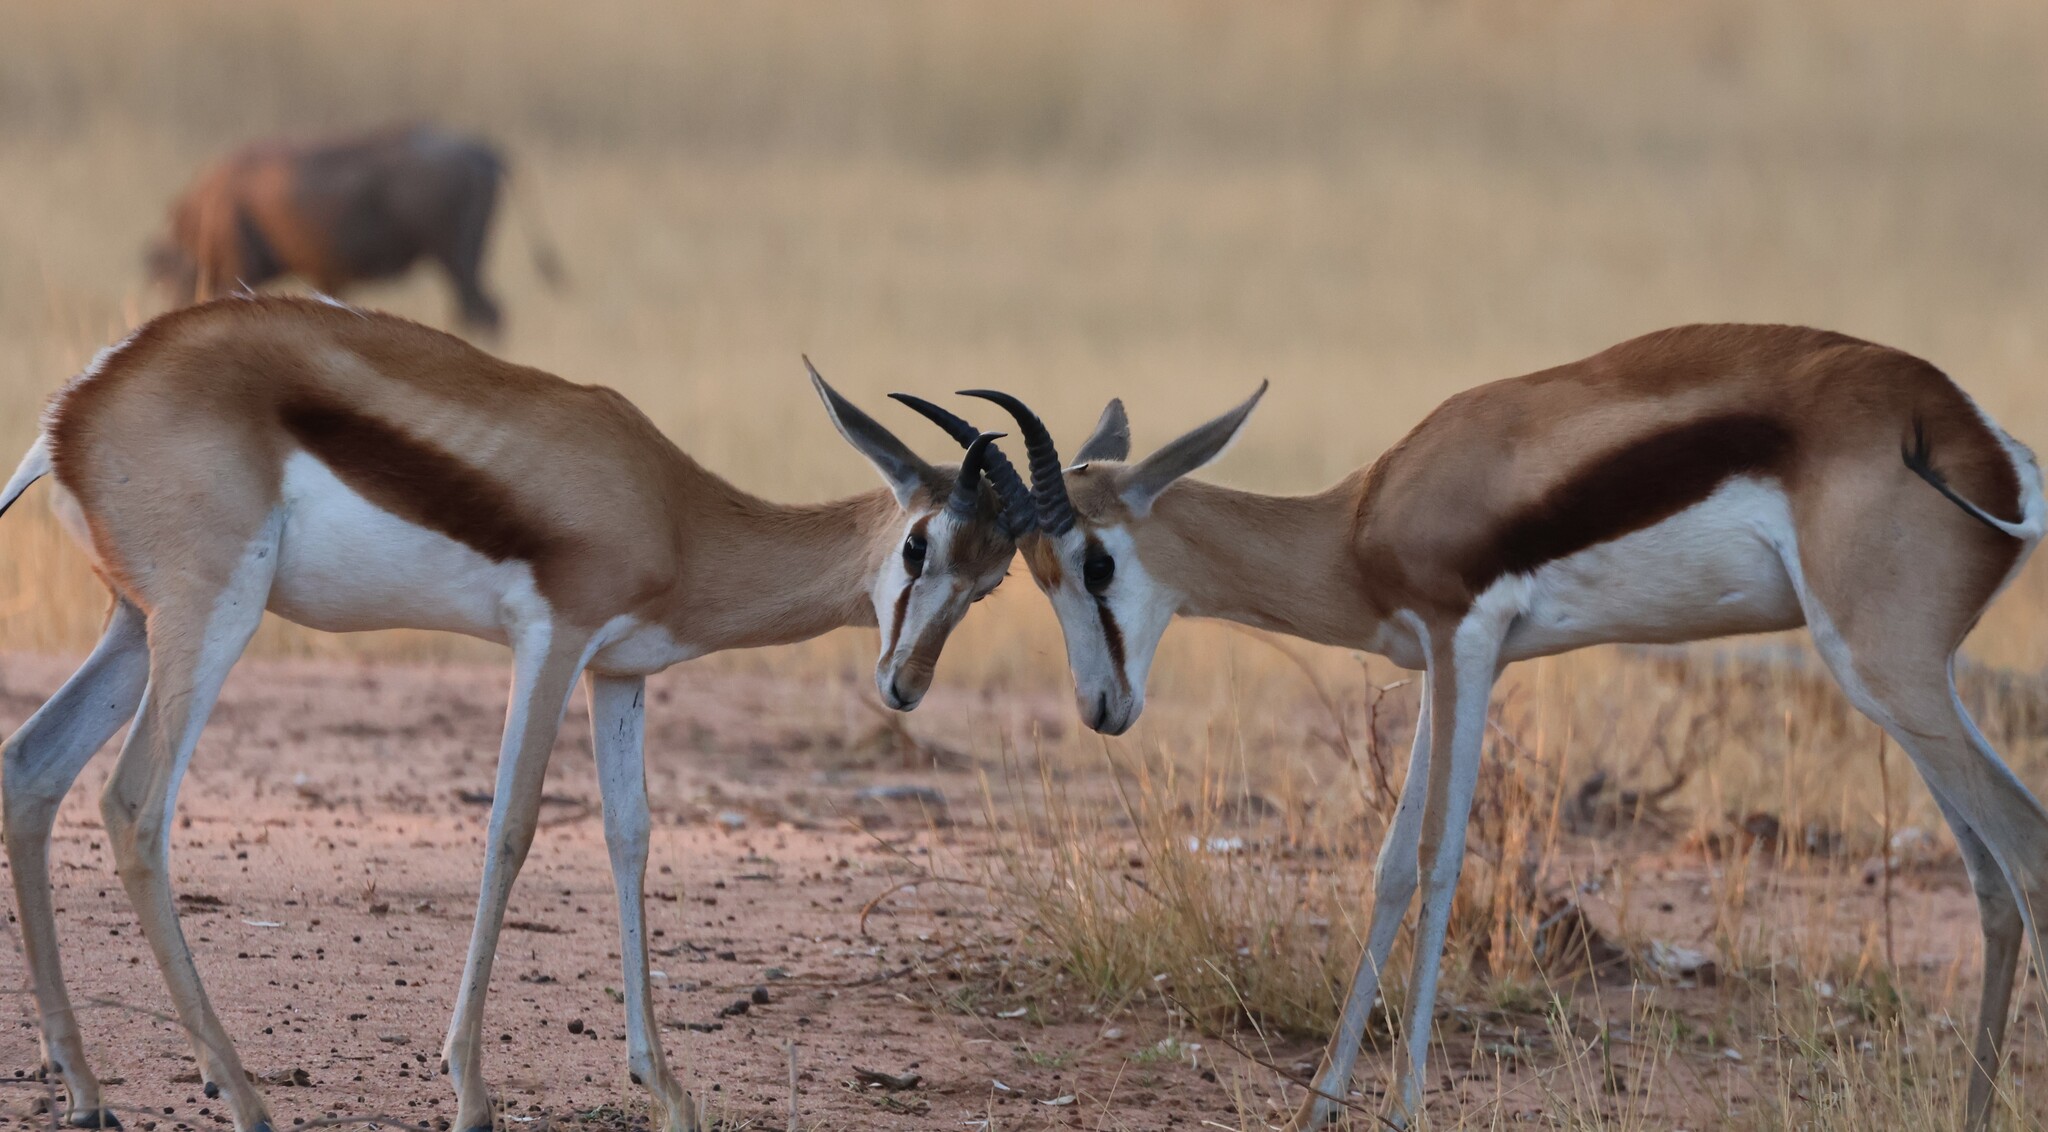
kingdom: Animalia
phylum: Chordata
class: Mammalia
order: Artiodactyla
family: Bovidae
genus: Antidorcas
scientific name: Antidorcas marsupialis
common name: Springbok
